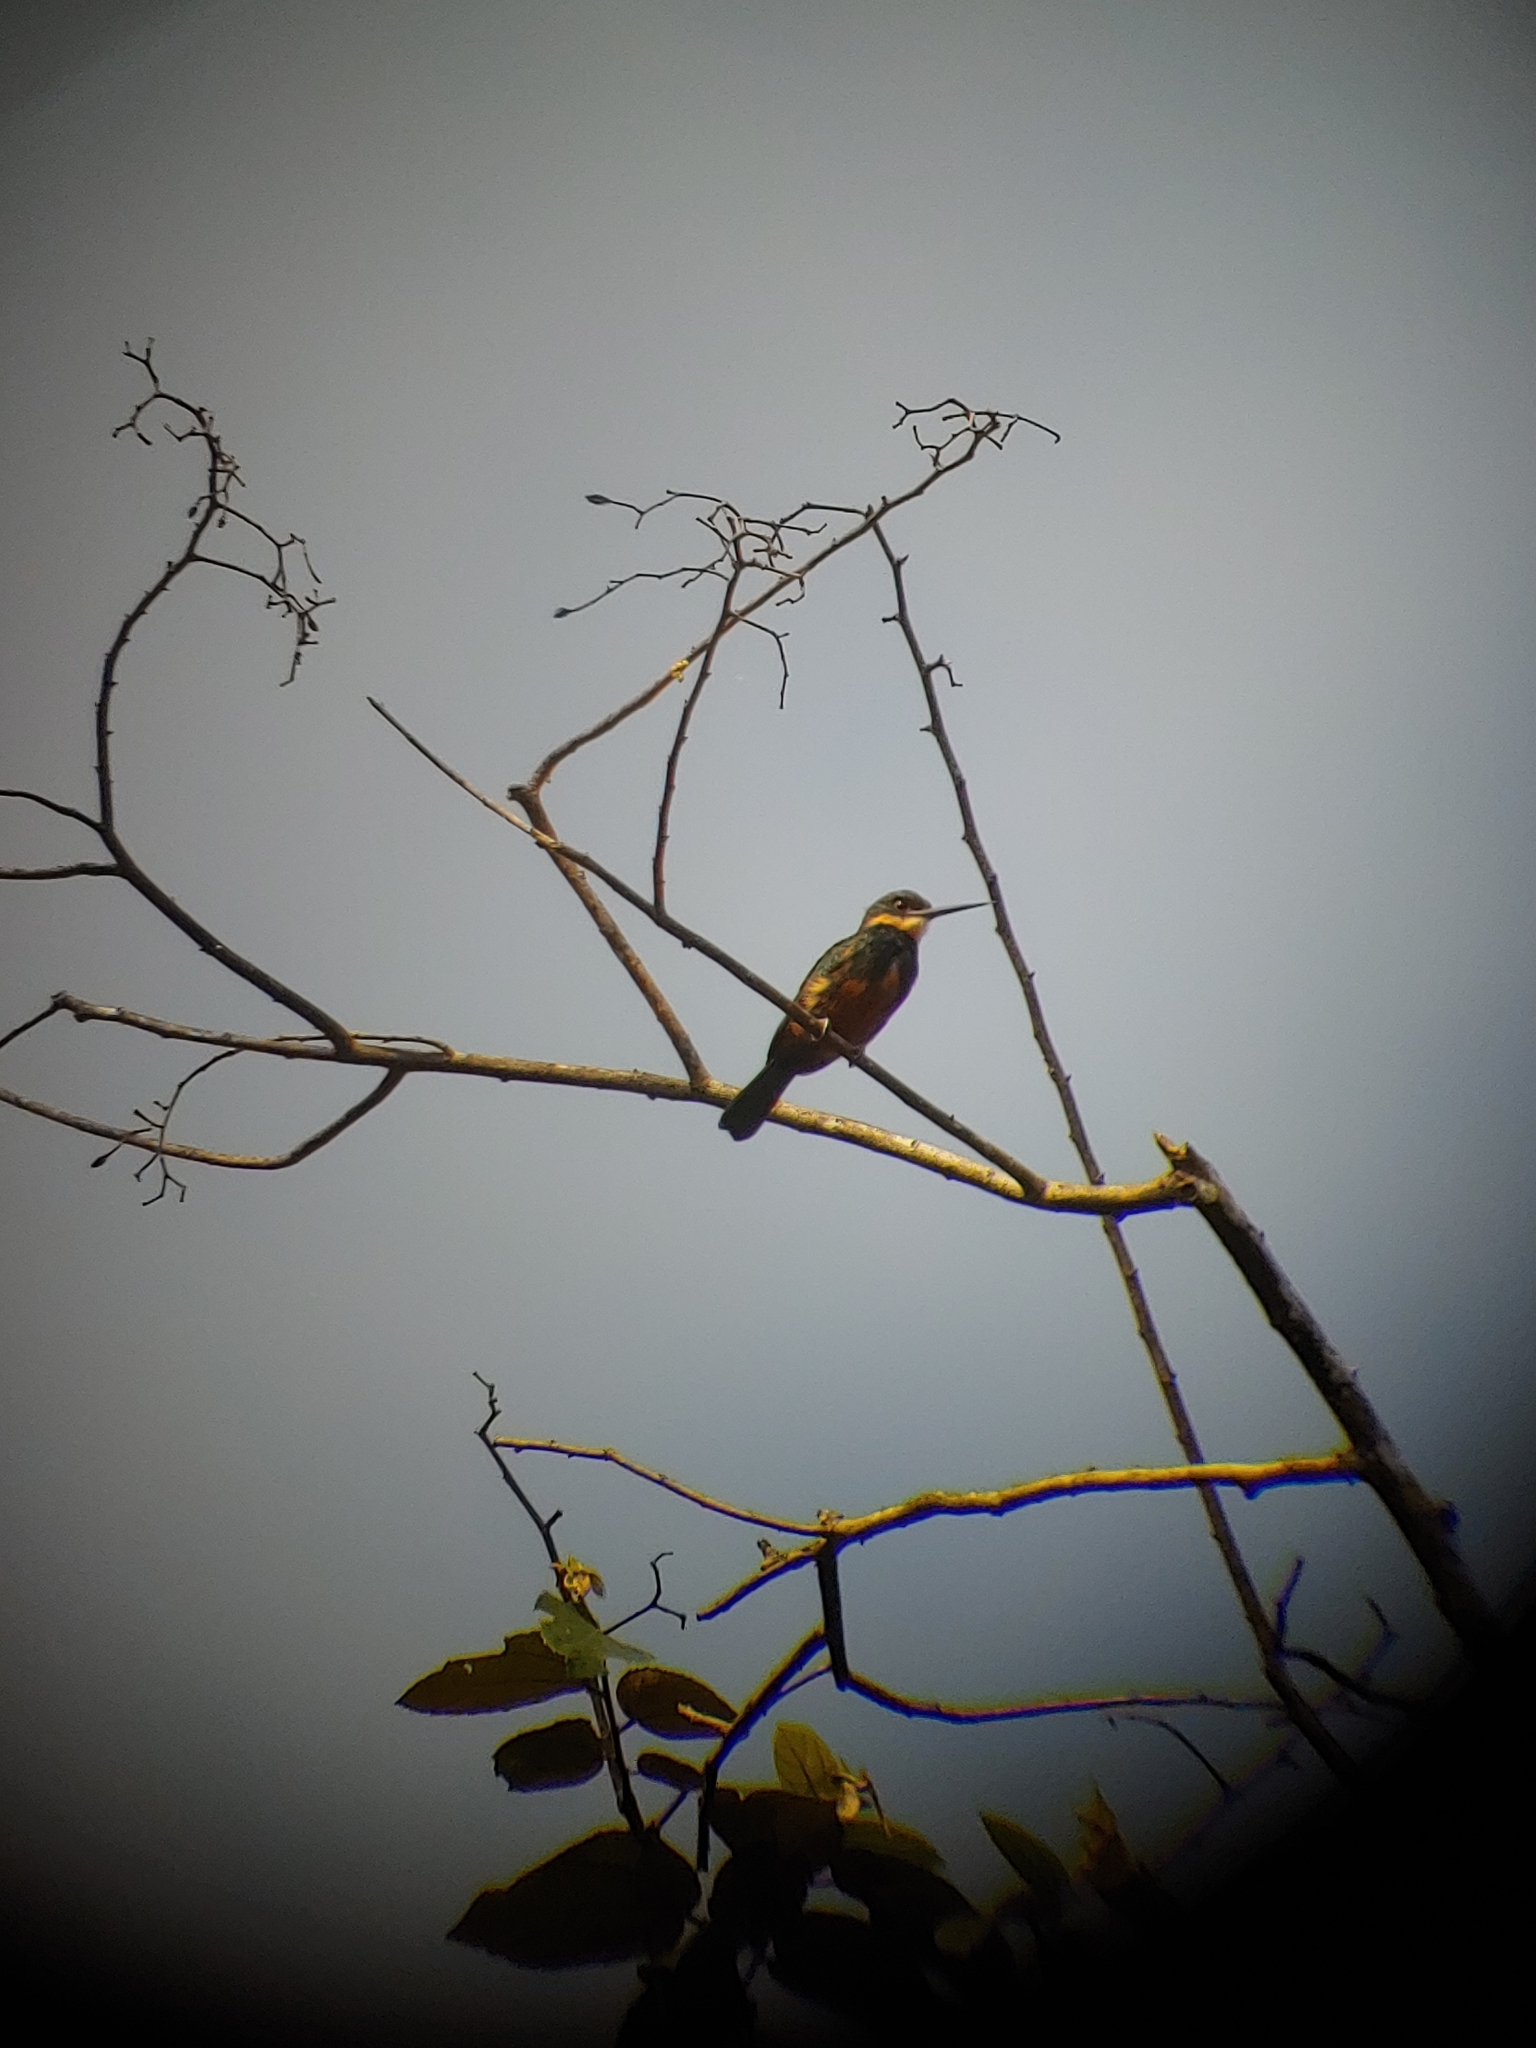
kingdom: Animalia
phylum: Chordata
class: Aves
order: Piciformes
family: Galbulidae
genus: Brachygalba
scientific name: Brachygalba salmoni
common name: Dusky-backed jacamar
